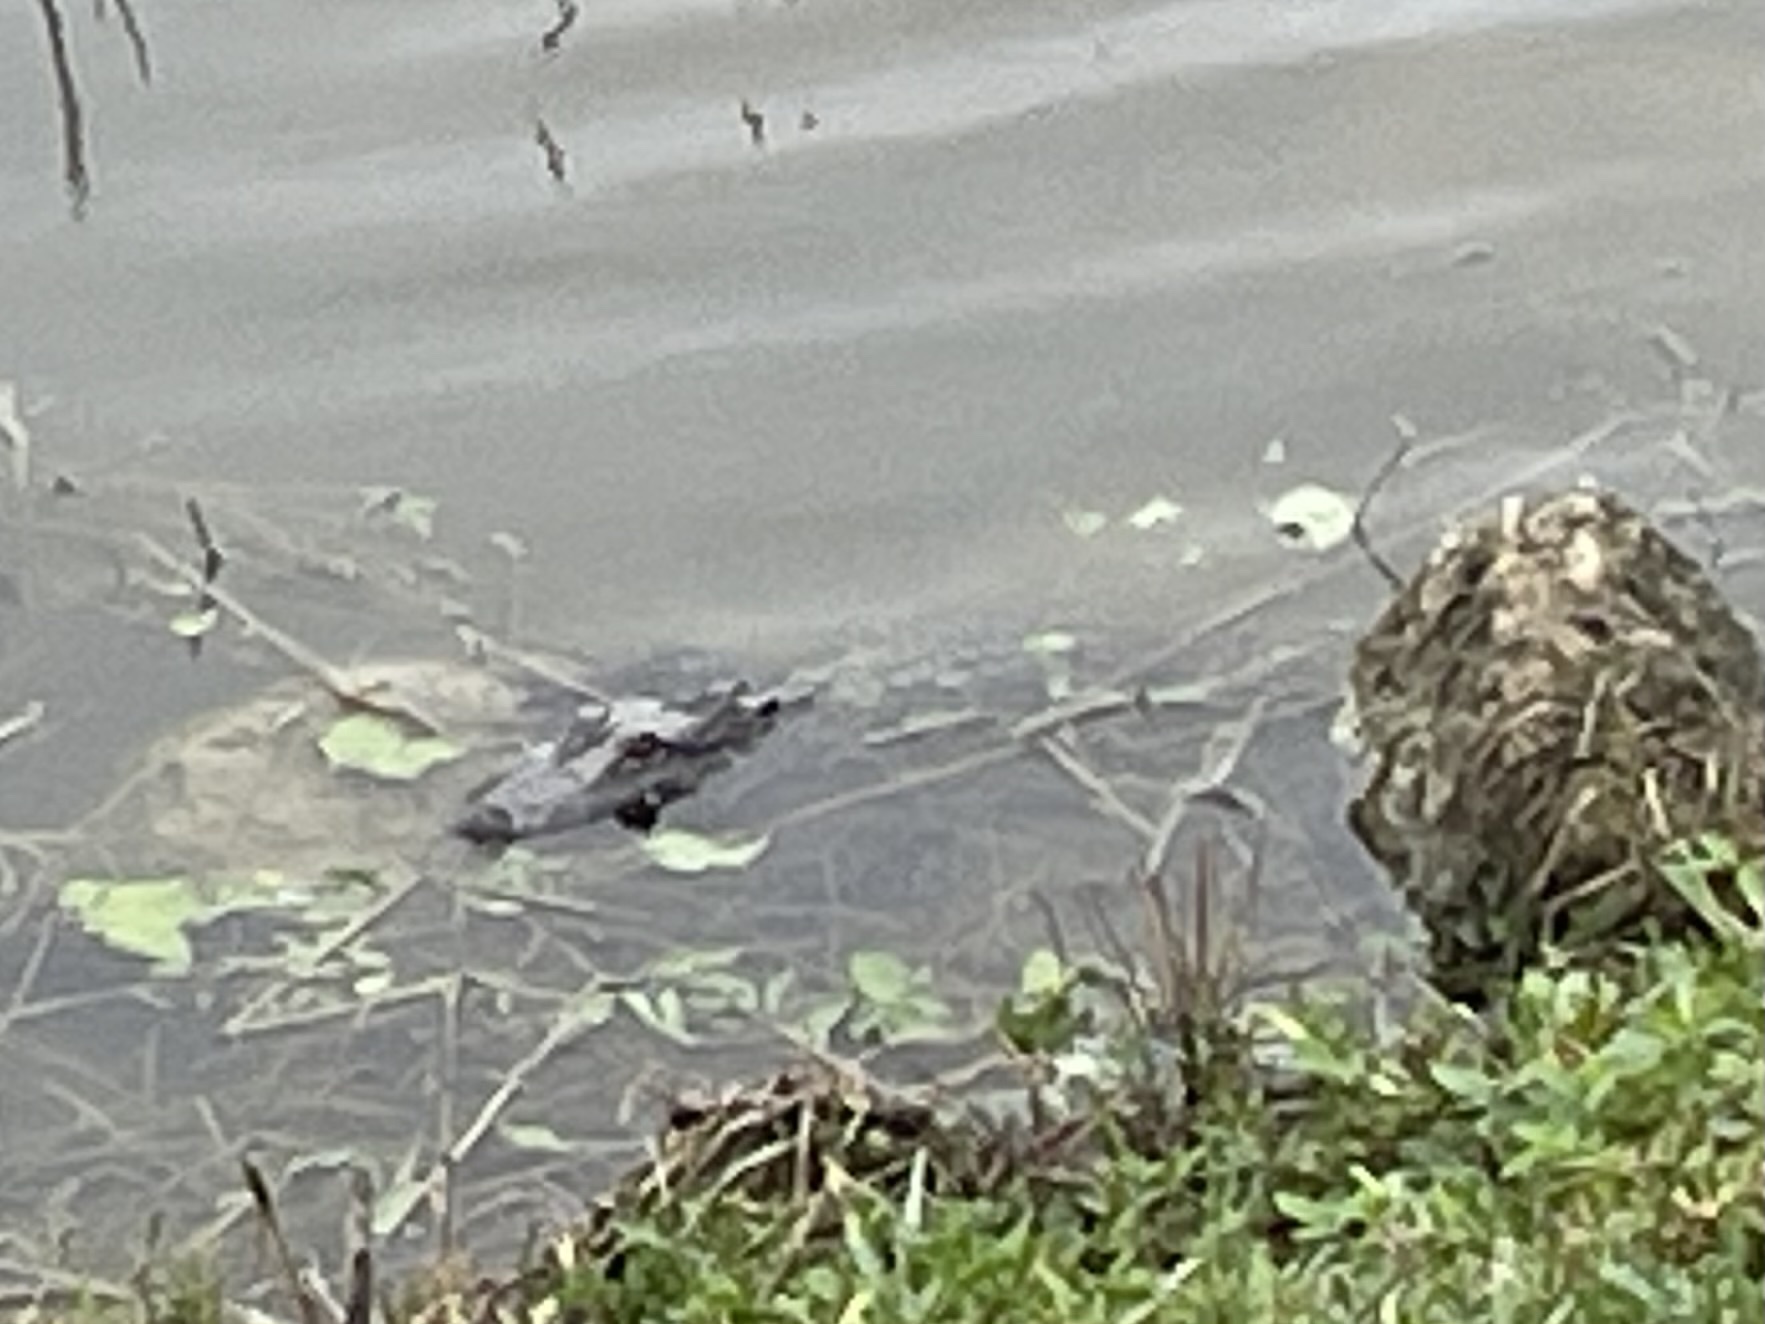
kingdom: Animalia
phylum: Chordata
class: Crocodylia
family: Alligatoridae
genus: Alligator
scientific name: Alligator mississippiensis
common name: American alligator
